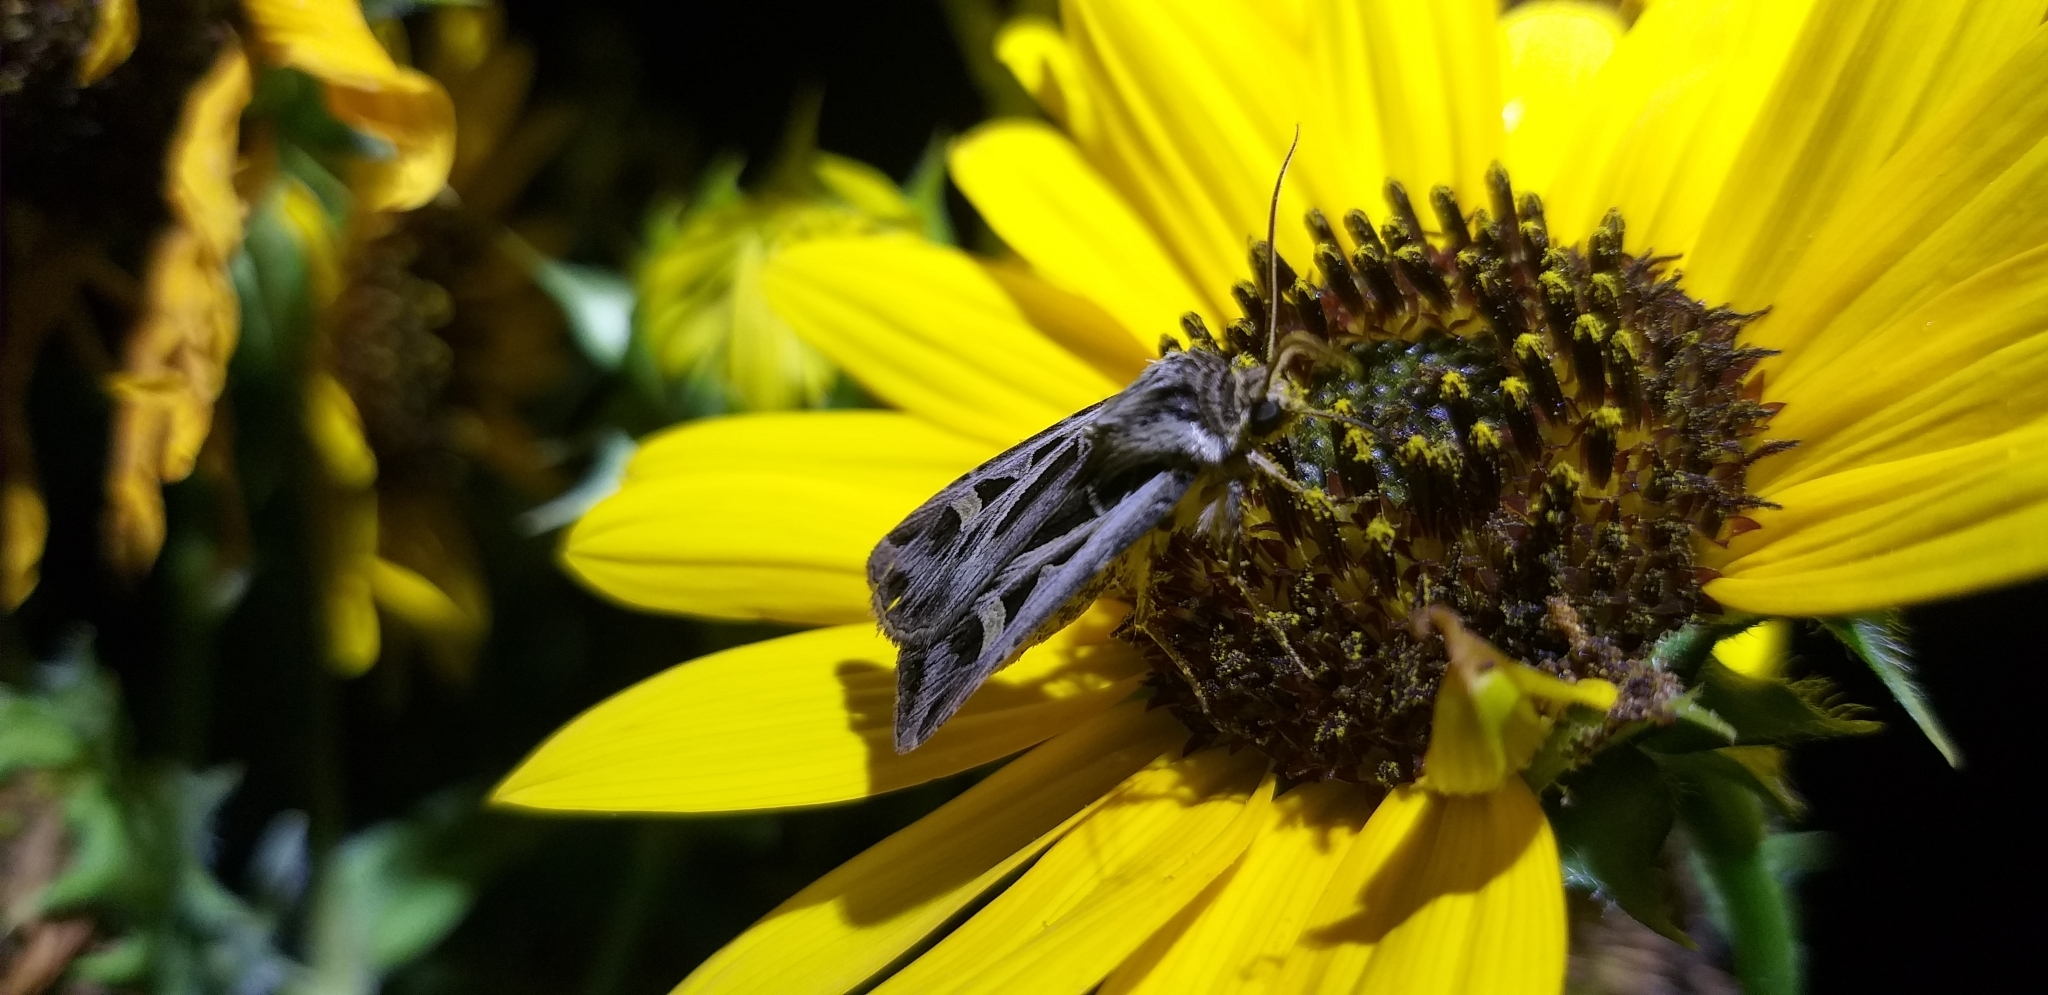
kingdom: Animalia
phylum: Arthropoda
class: Insecta
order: Lepidoptera
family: Noctuidae
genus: Feltia
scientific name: Feltia jaculifera
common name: Dingy cutworm moth
